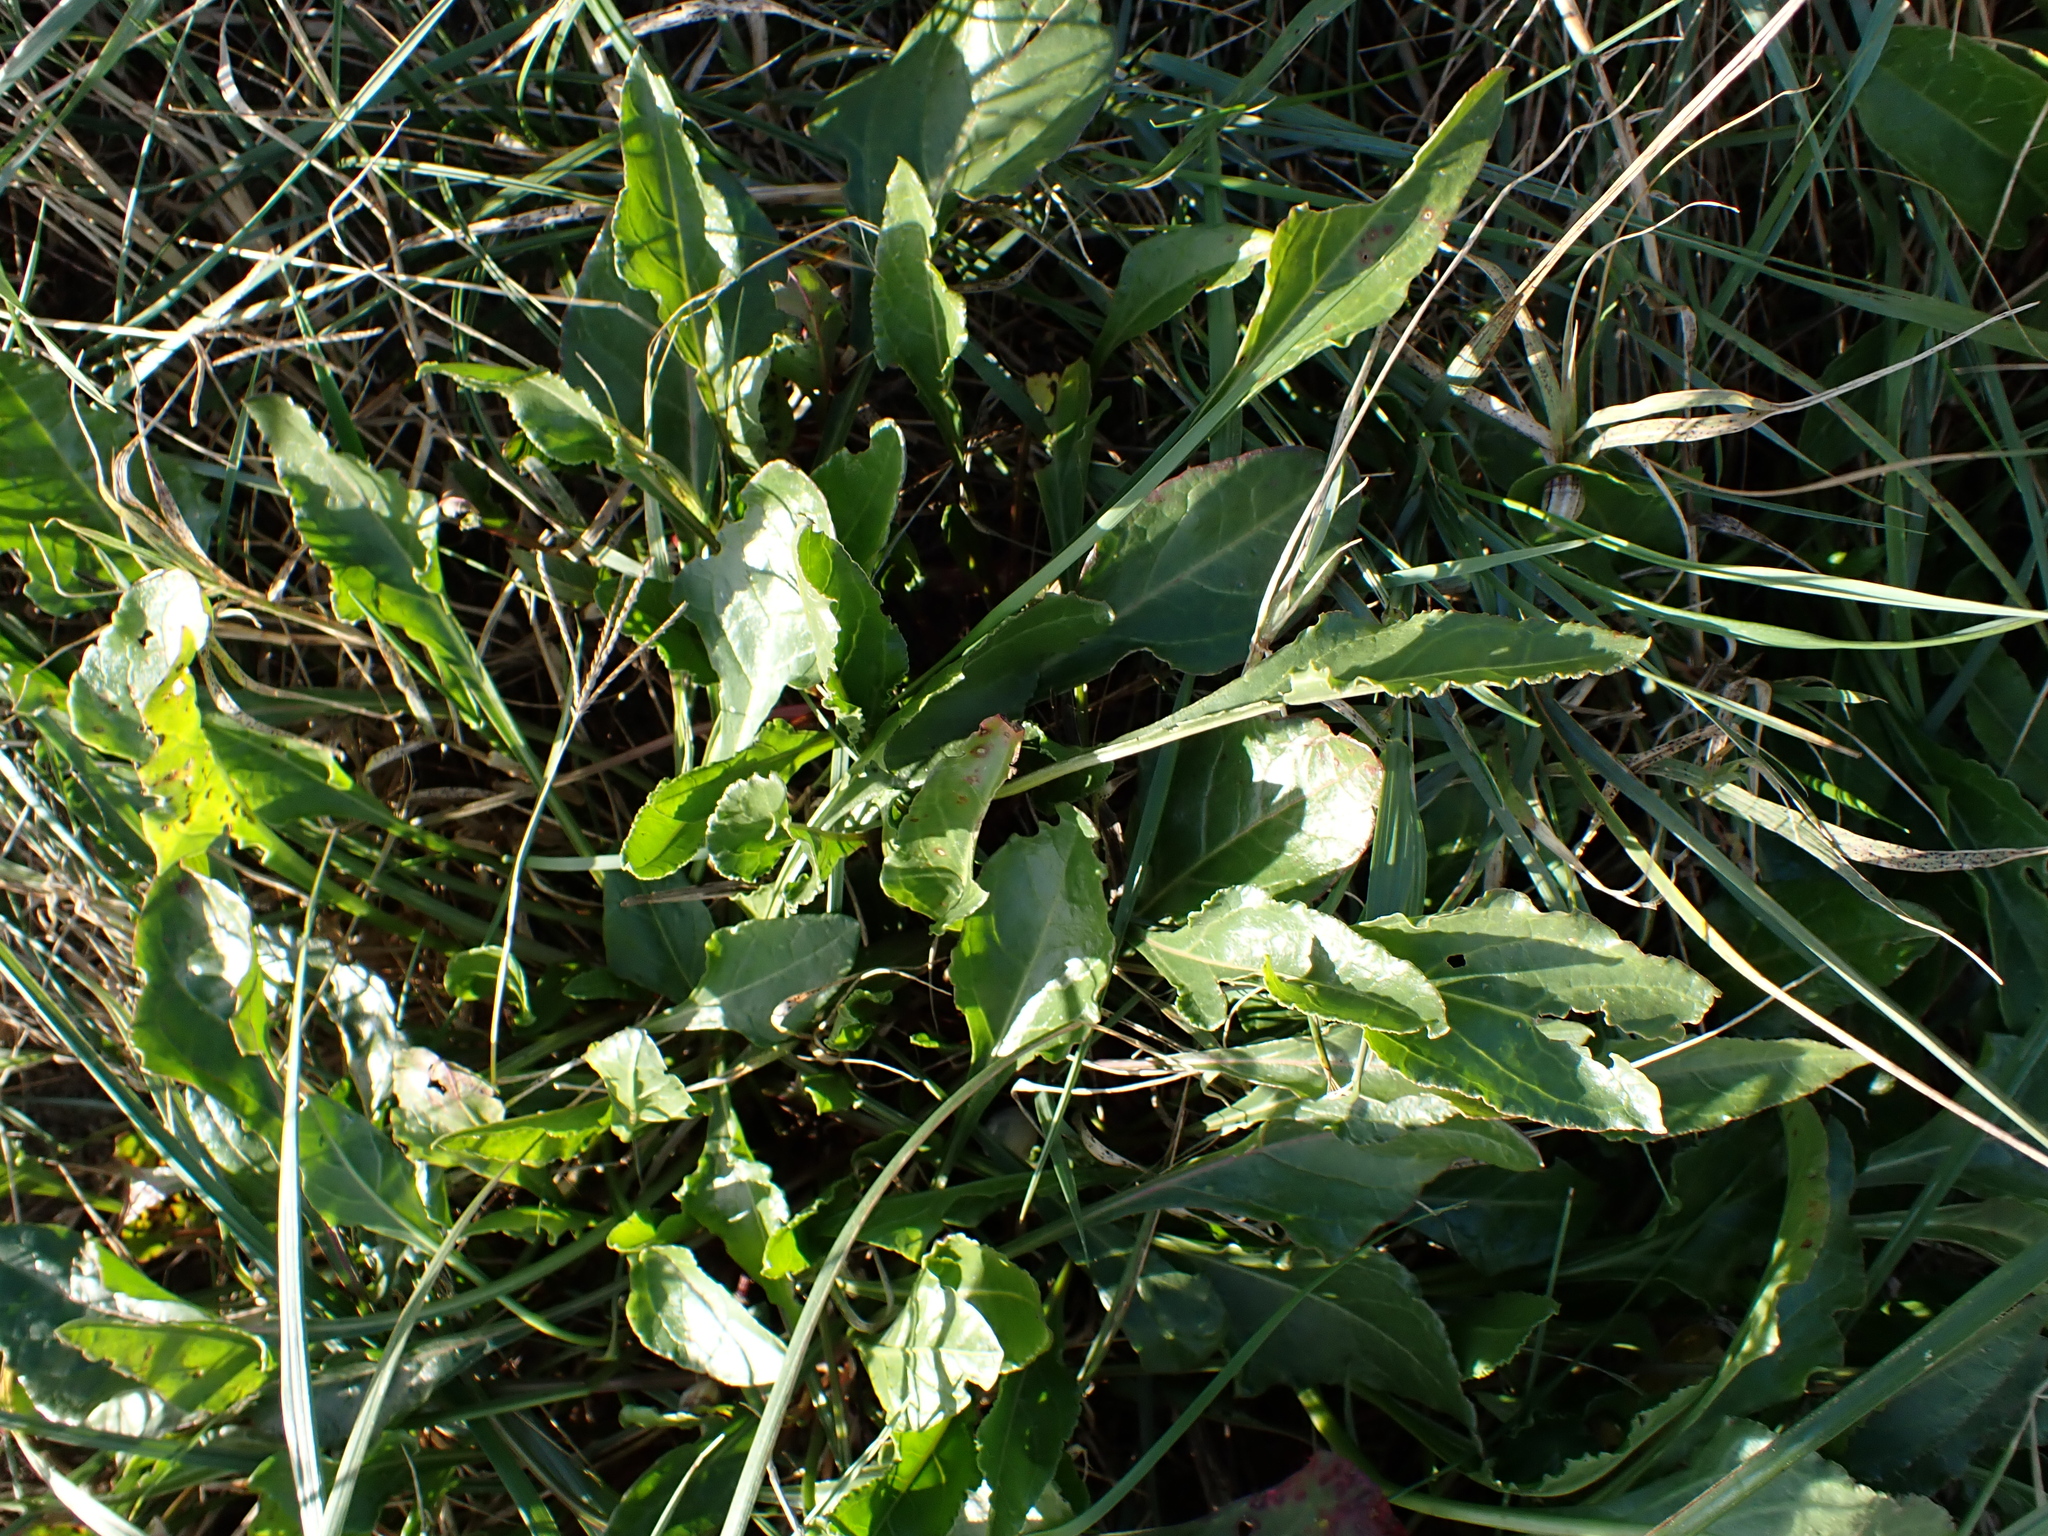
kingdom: Plantae
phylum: Tracheophyta
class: Magnoliopsida
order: Caryophyllales
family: Amaranthaceae
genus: Beta
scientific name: Beta vulgaris
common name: Beet
